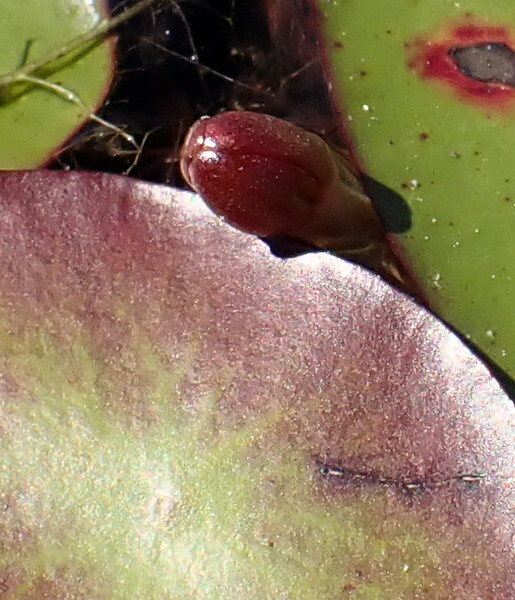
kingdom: Plantae
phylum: Tracheophyta
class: Magnoliopsida
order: Nymphaeales
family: Cabombaceae
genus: Brasenia
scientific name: Brasenia schreberi
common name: Water-shield
